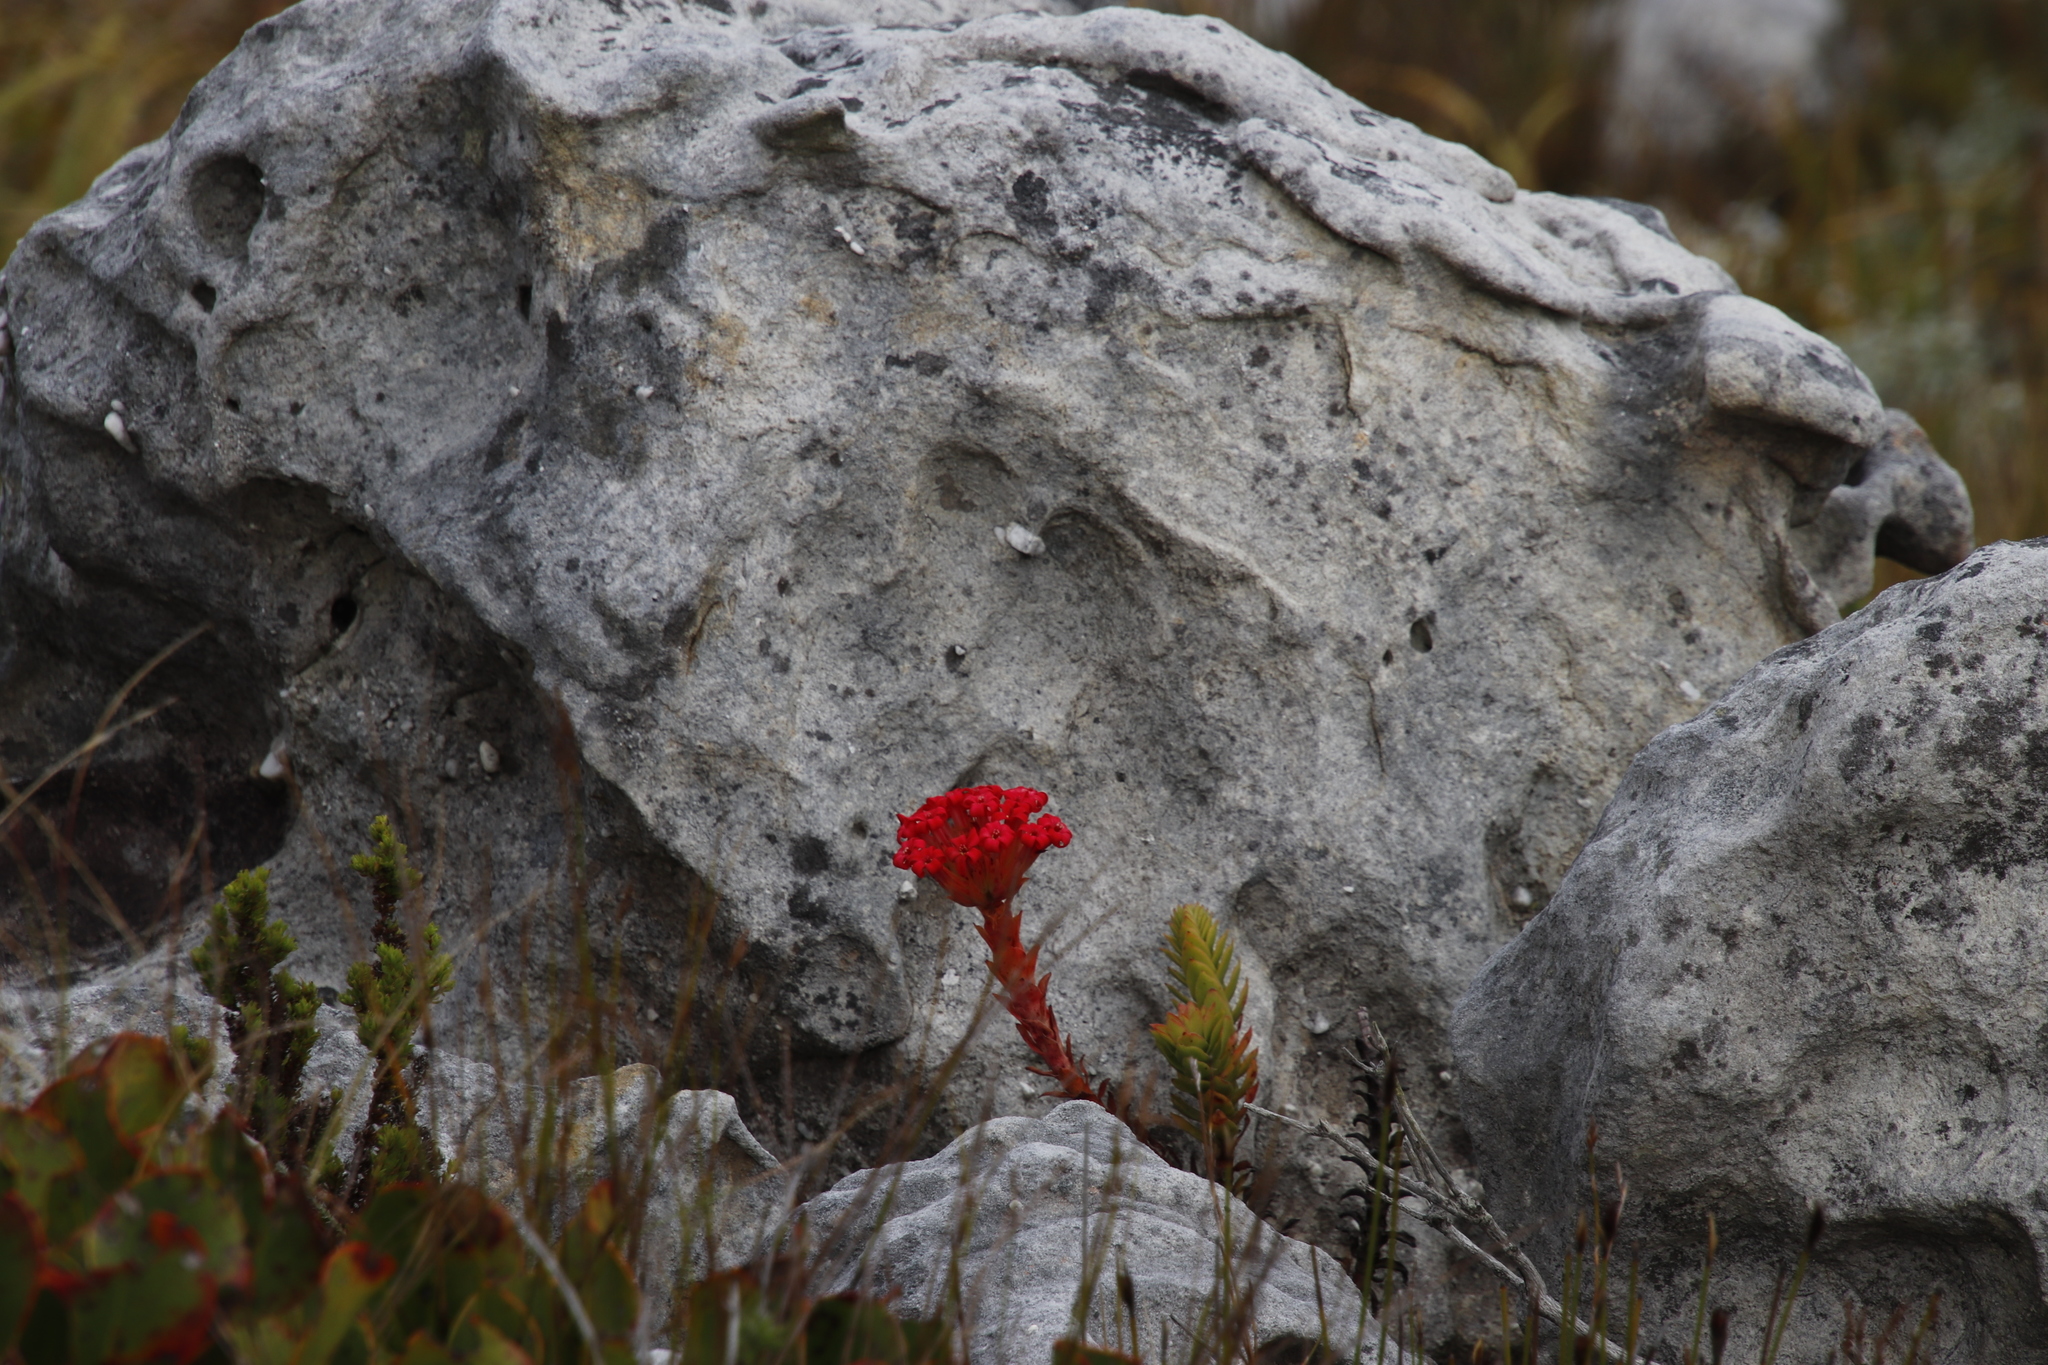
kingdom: Plantae
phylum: Tracheophyta
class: Magnoliopsida
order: Saxifragales
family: Crassulaceae
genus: Crassula
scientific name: Crassula coccinea
